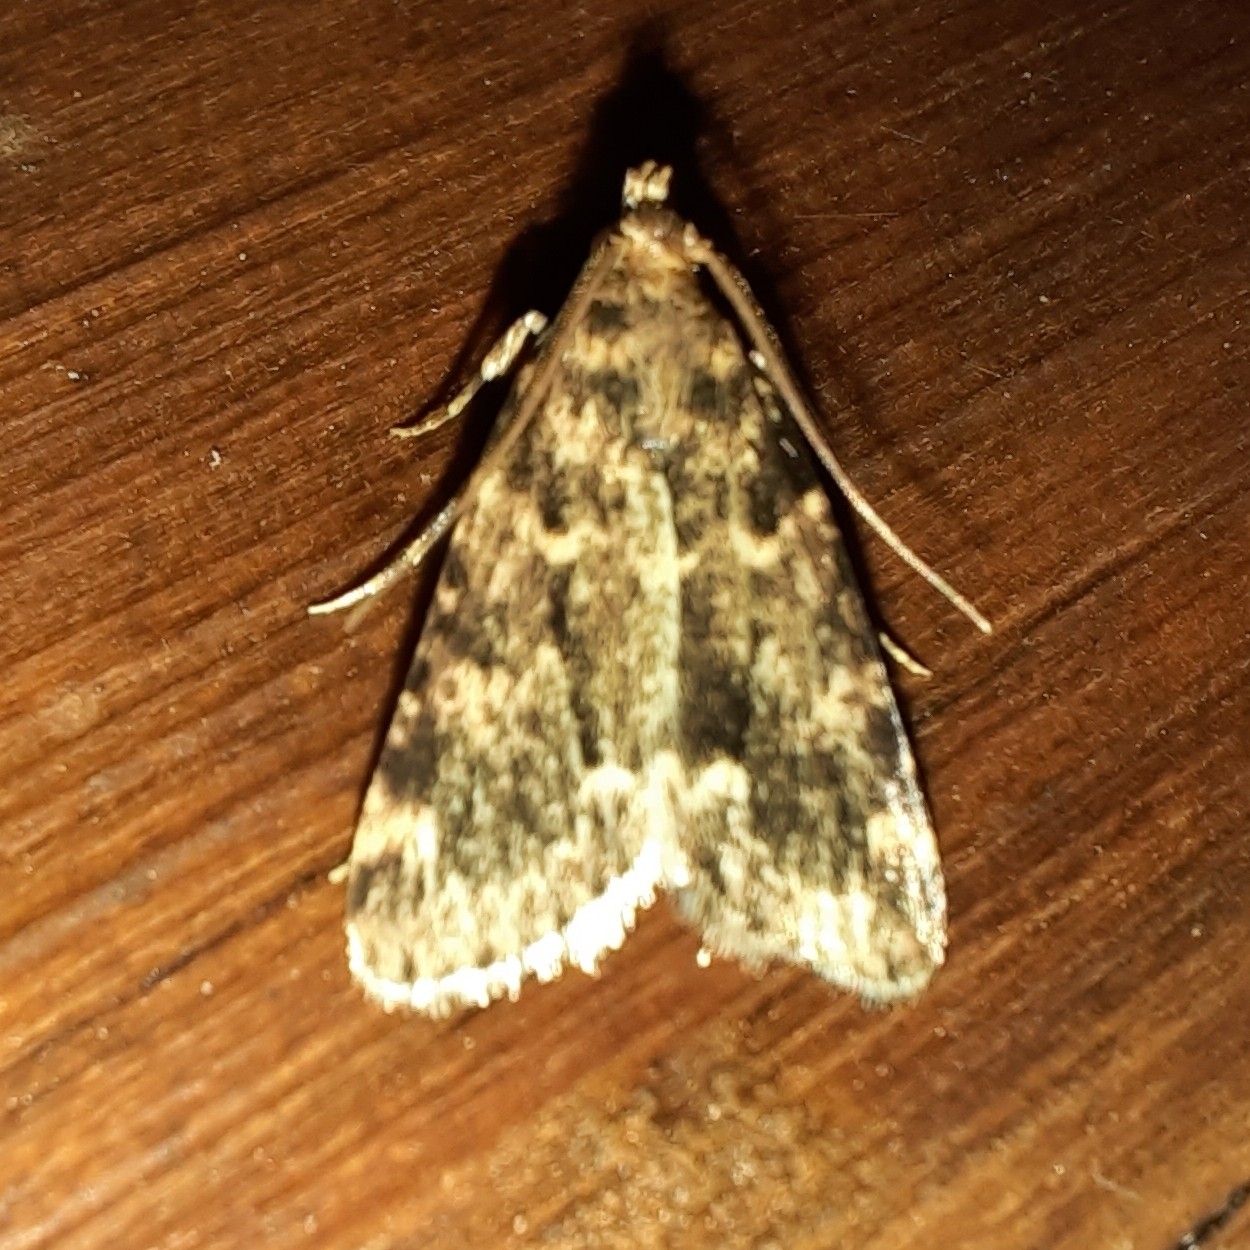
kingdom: Animalia
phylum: Arthropoda
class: Insecta
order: Lepidoptera
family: Pyralidae
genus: Aglossa
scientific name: Aglossa caprealis
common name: Small tabby
